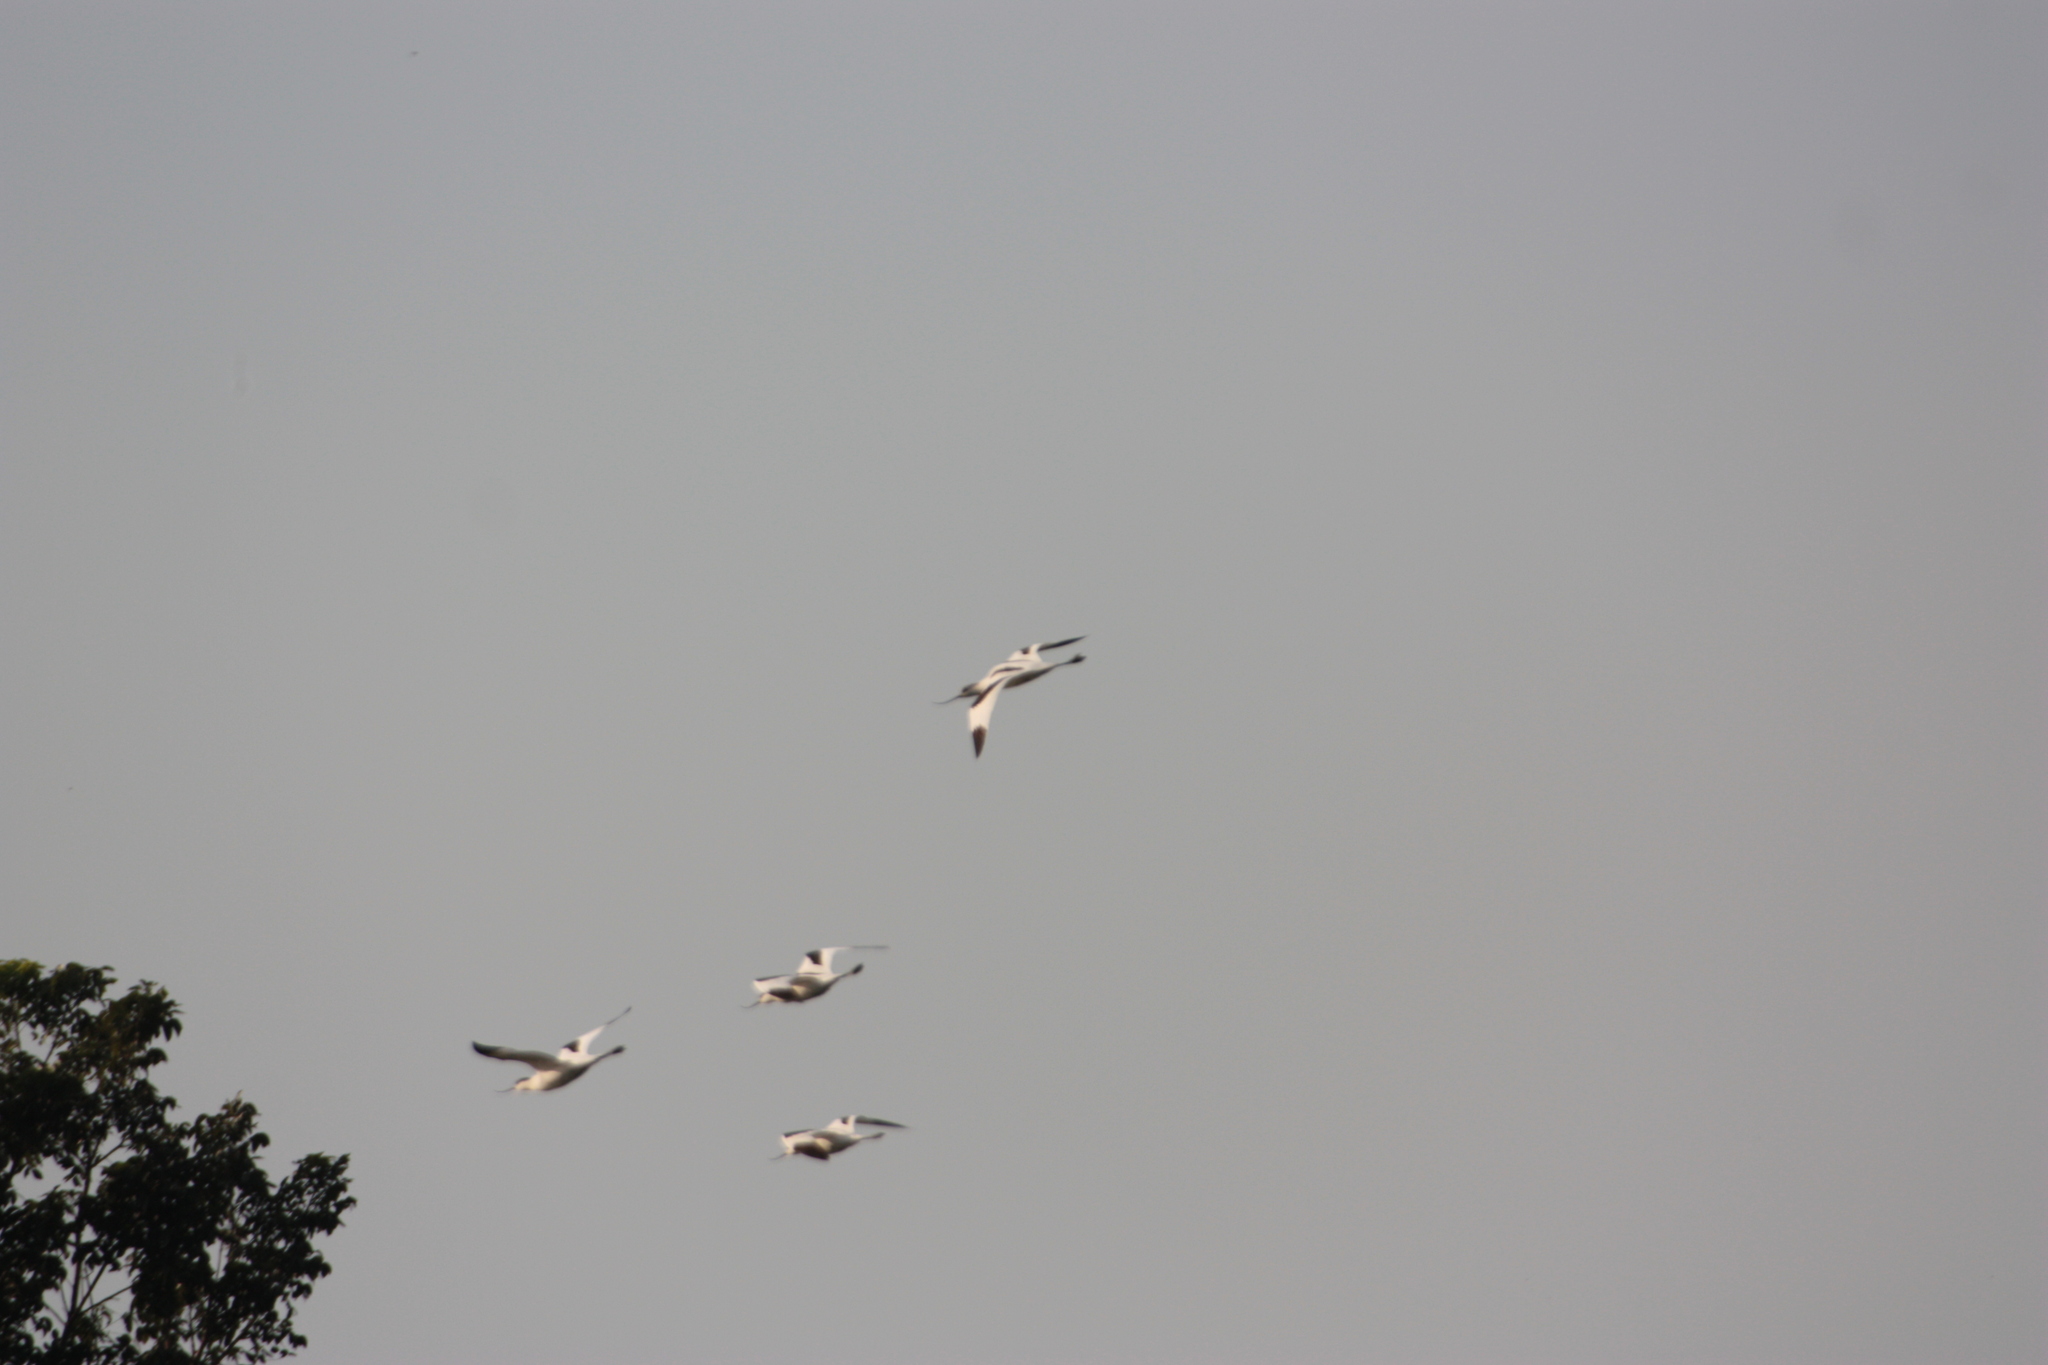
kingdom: Animalia
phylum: Chordata
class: Aves
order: Charadriiformes
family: Recurvirostridae
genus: Recurvirostra
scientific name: Recurvirostra avosetta
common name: Pied avocet
